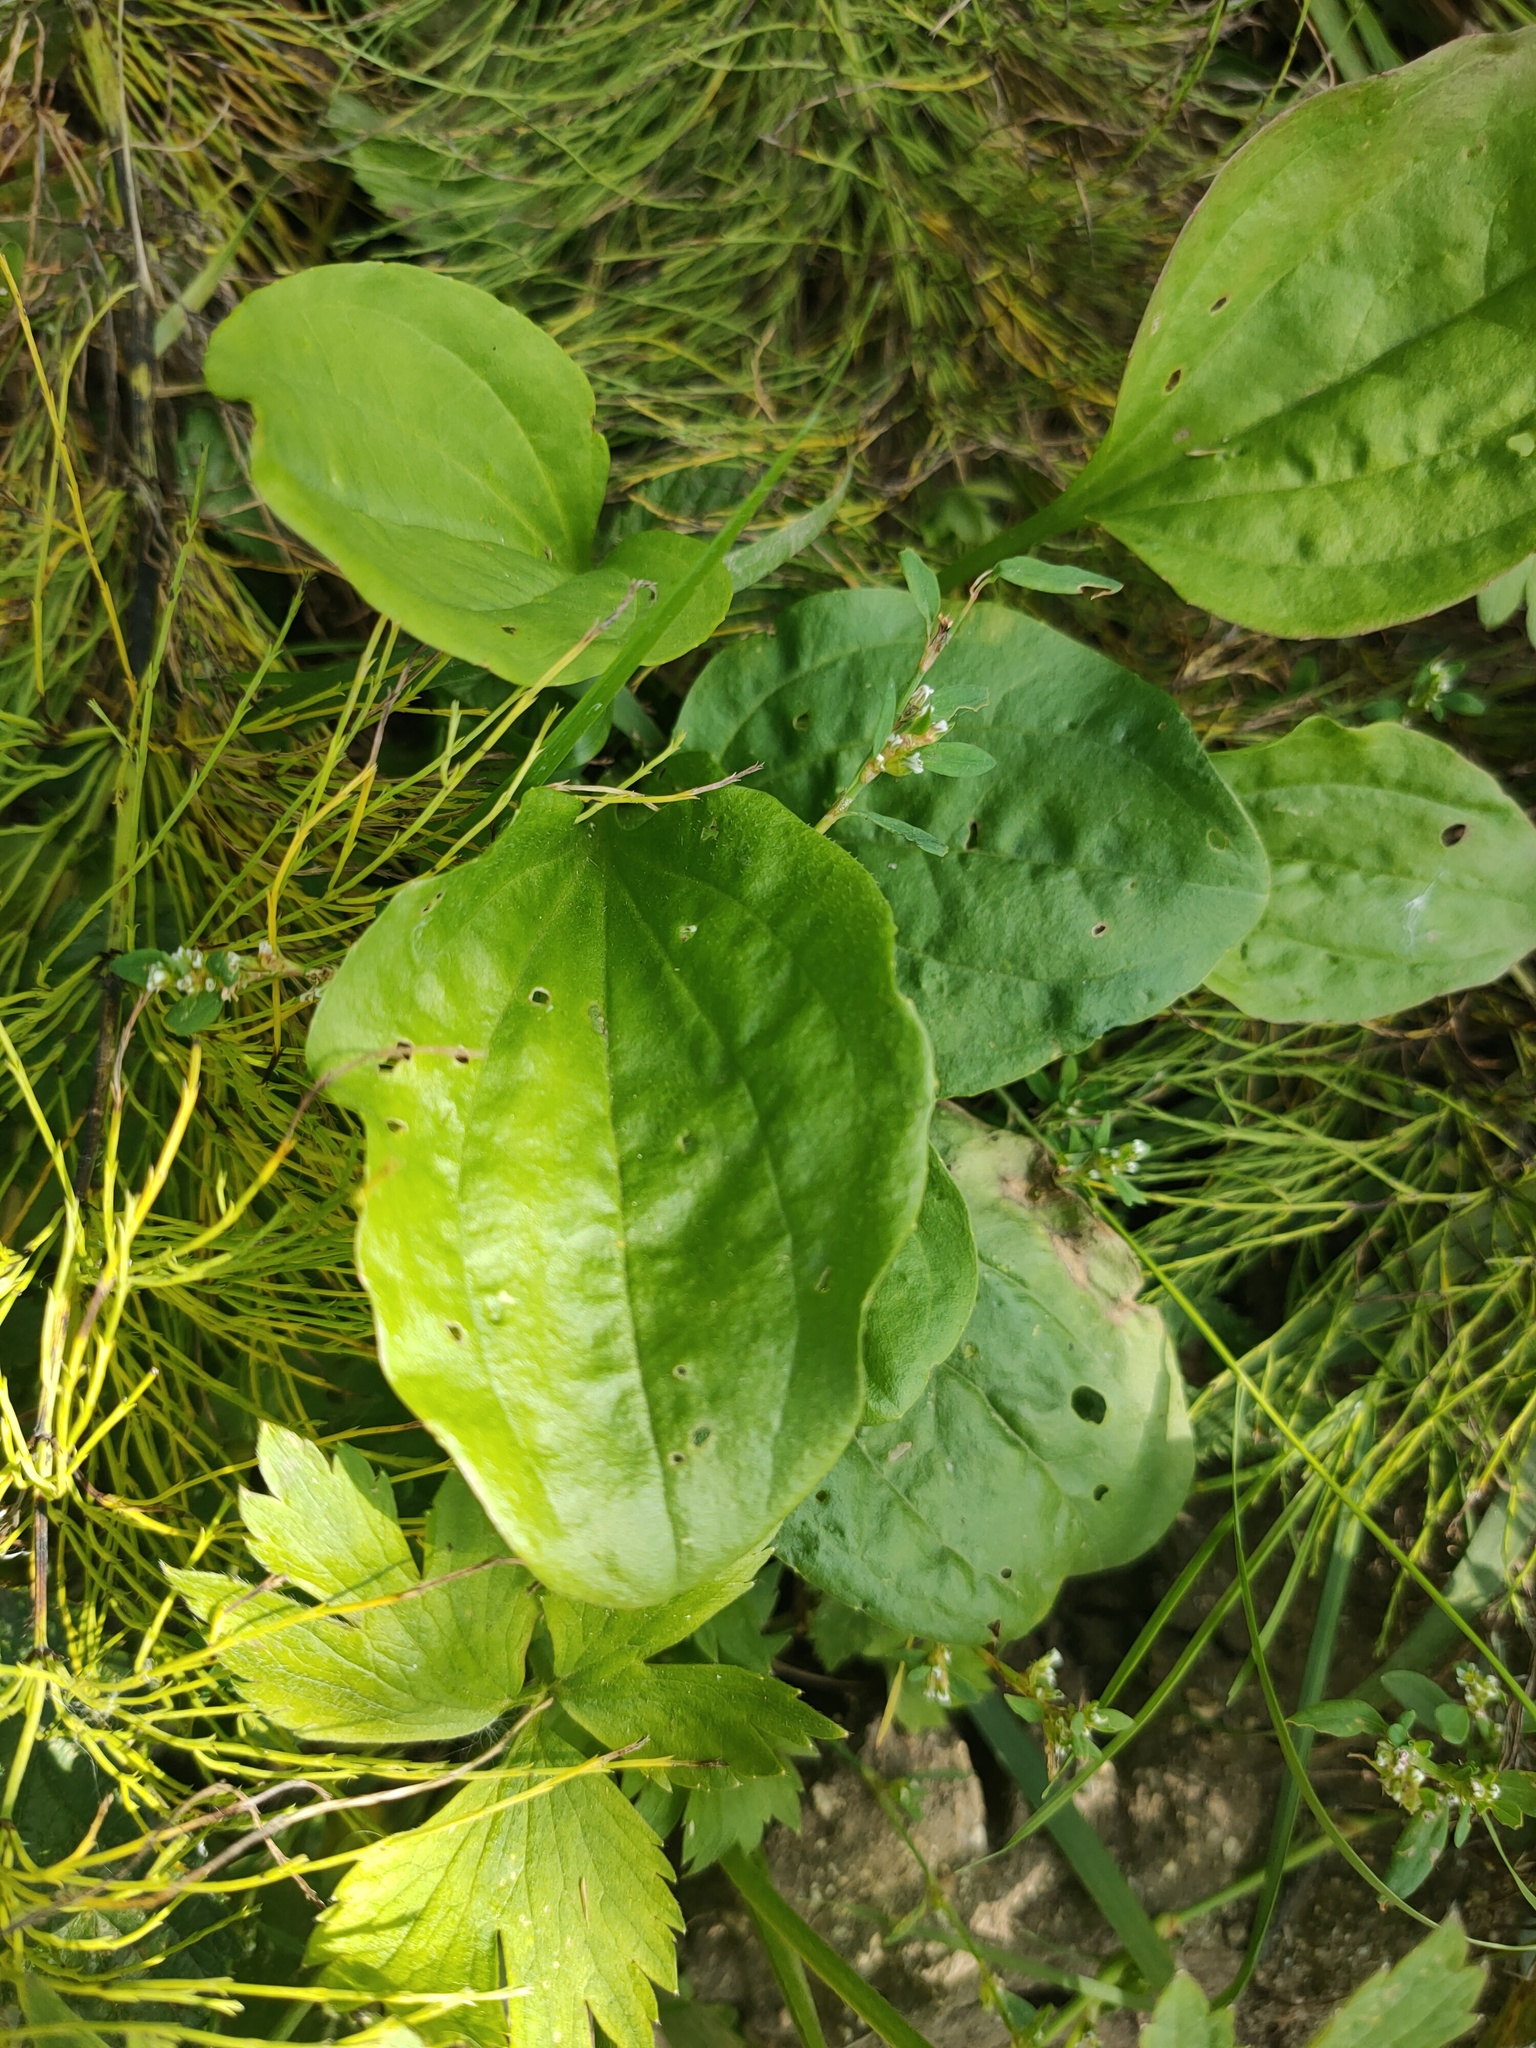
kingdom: Plantae
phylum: Tracheophyta
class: Magnoliopsida
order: Lamiales
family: Plantaginaceae
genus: Plantago
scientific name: Plantago major
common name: Common plantain
